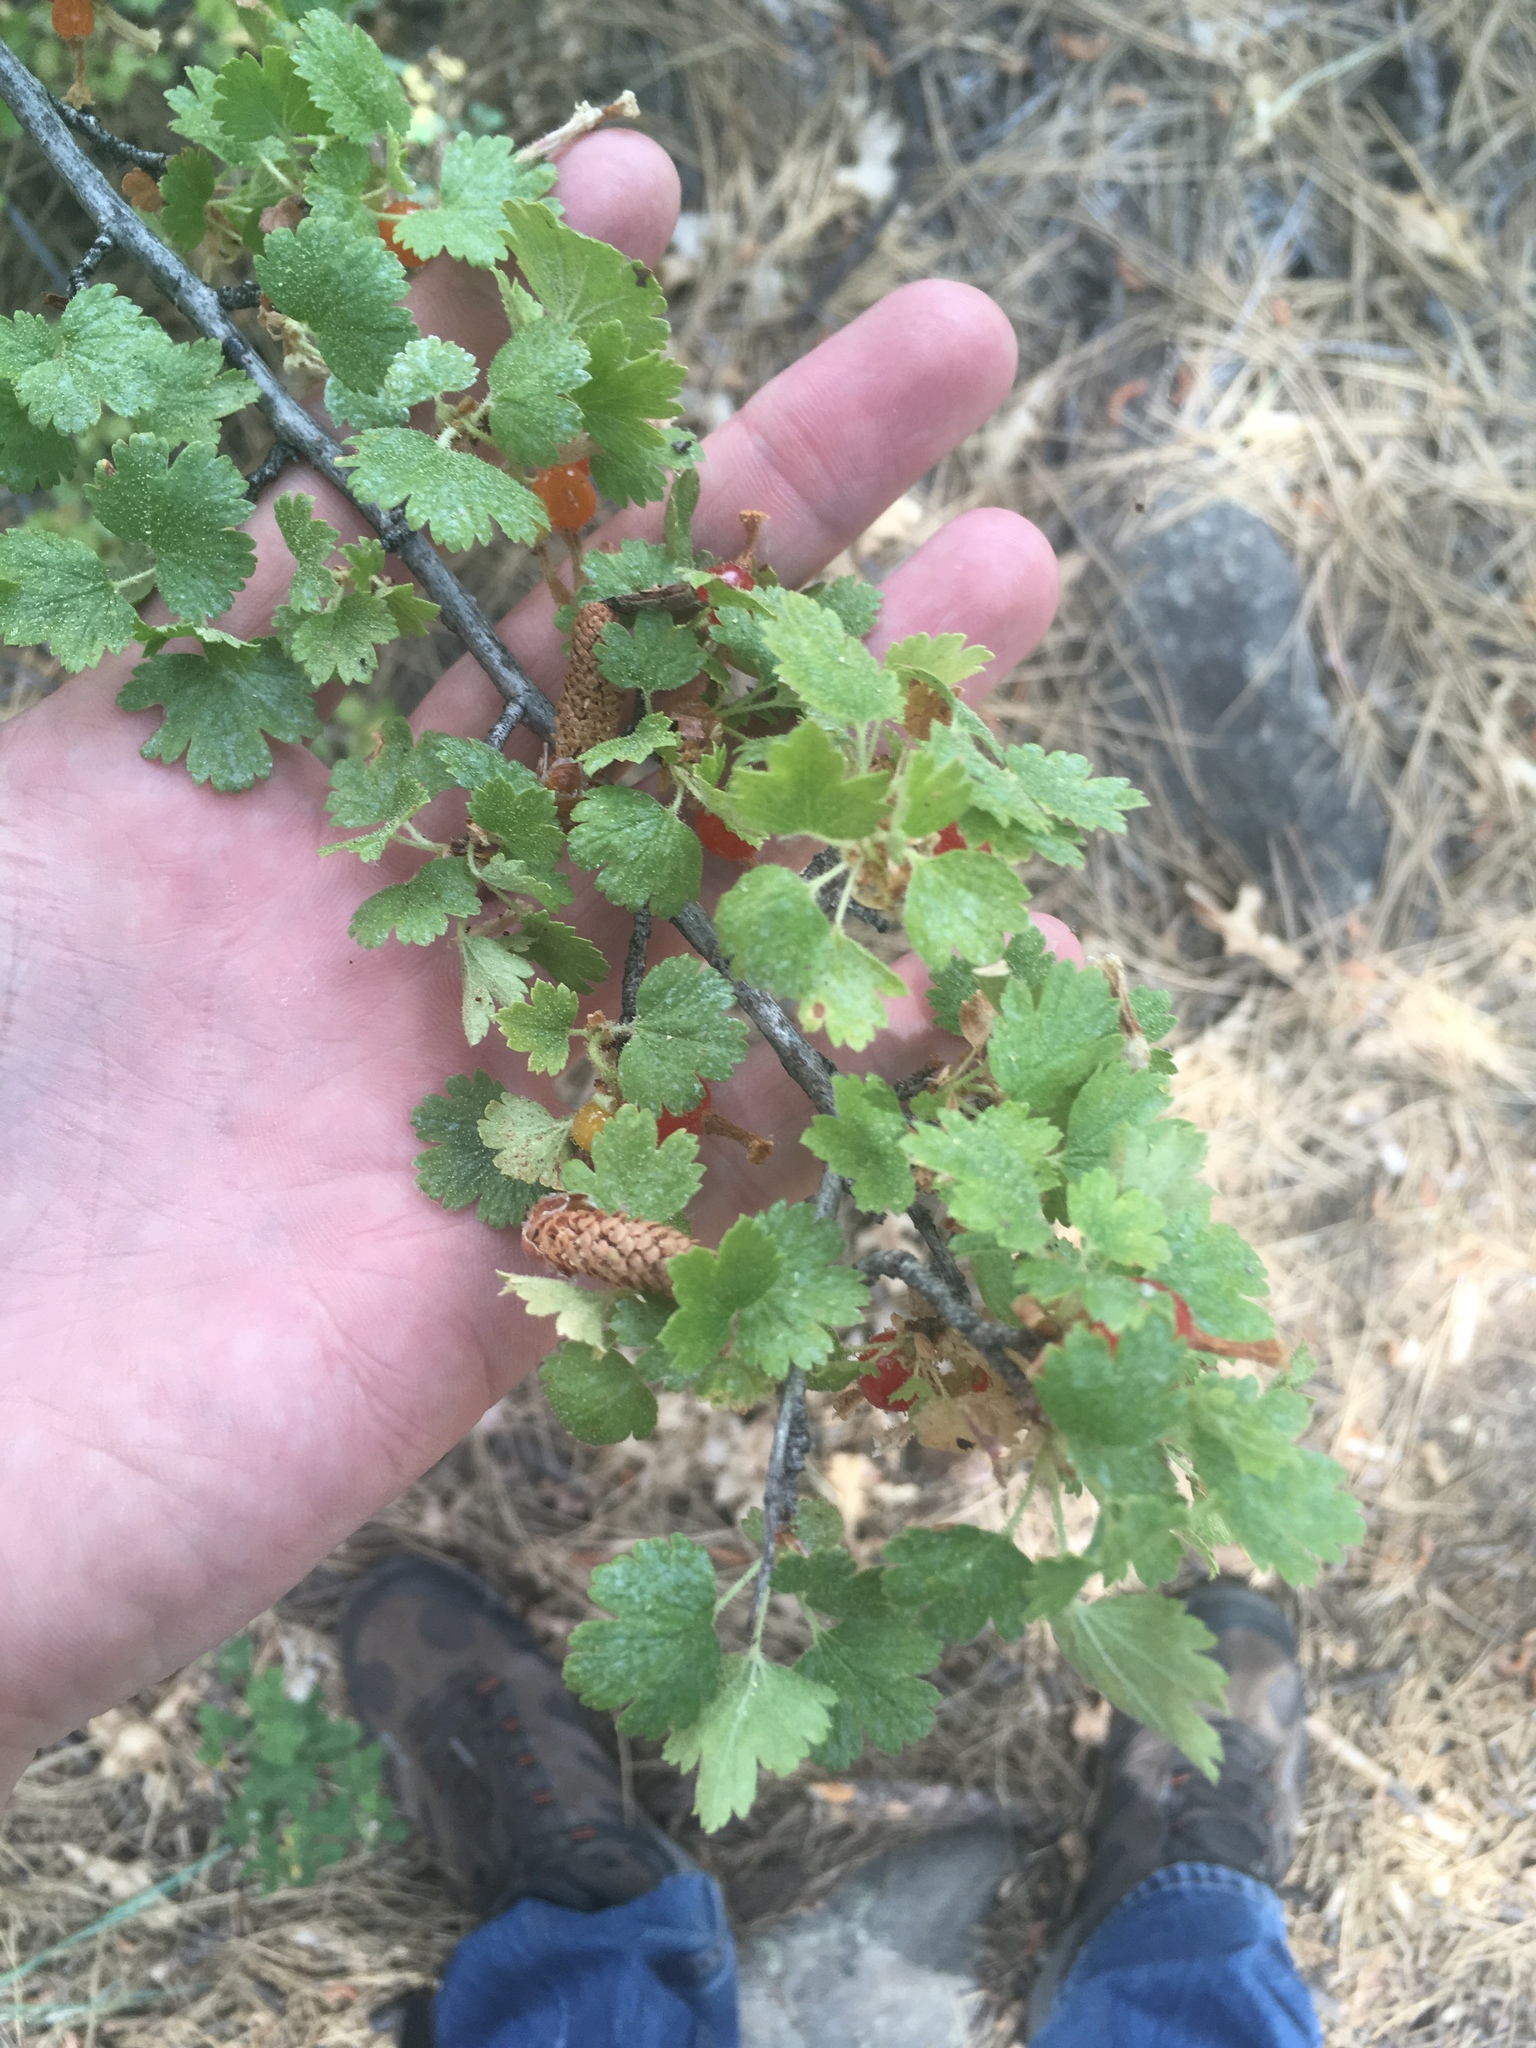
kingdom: Plantae
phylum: Tracheophyta
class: Magnoliopsida
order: Saxifragales
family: Grossulariaceae
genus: Ribes
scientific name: Ribes cereum
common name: Wax currant
